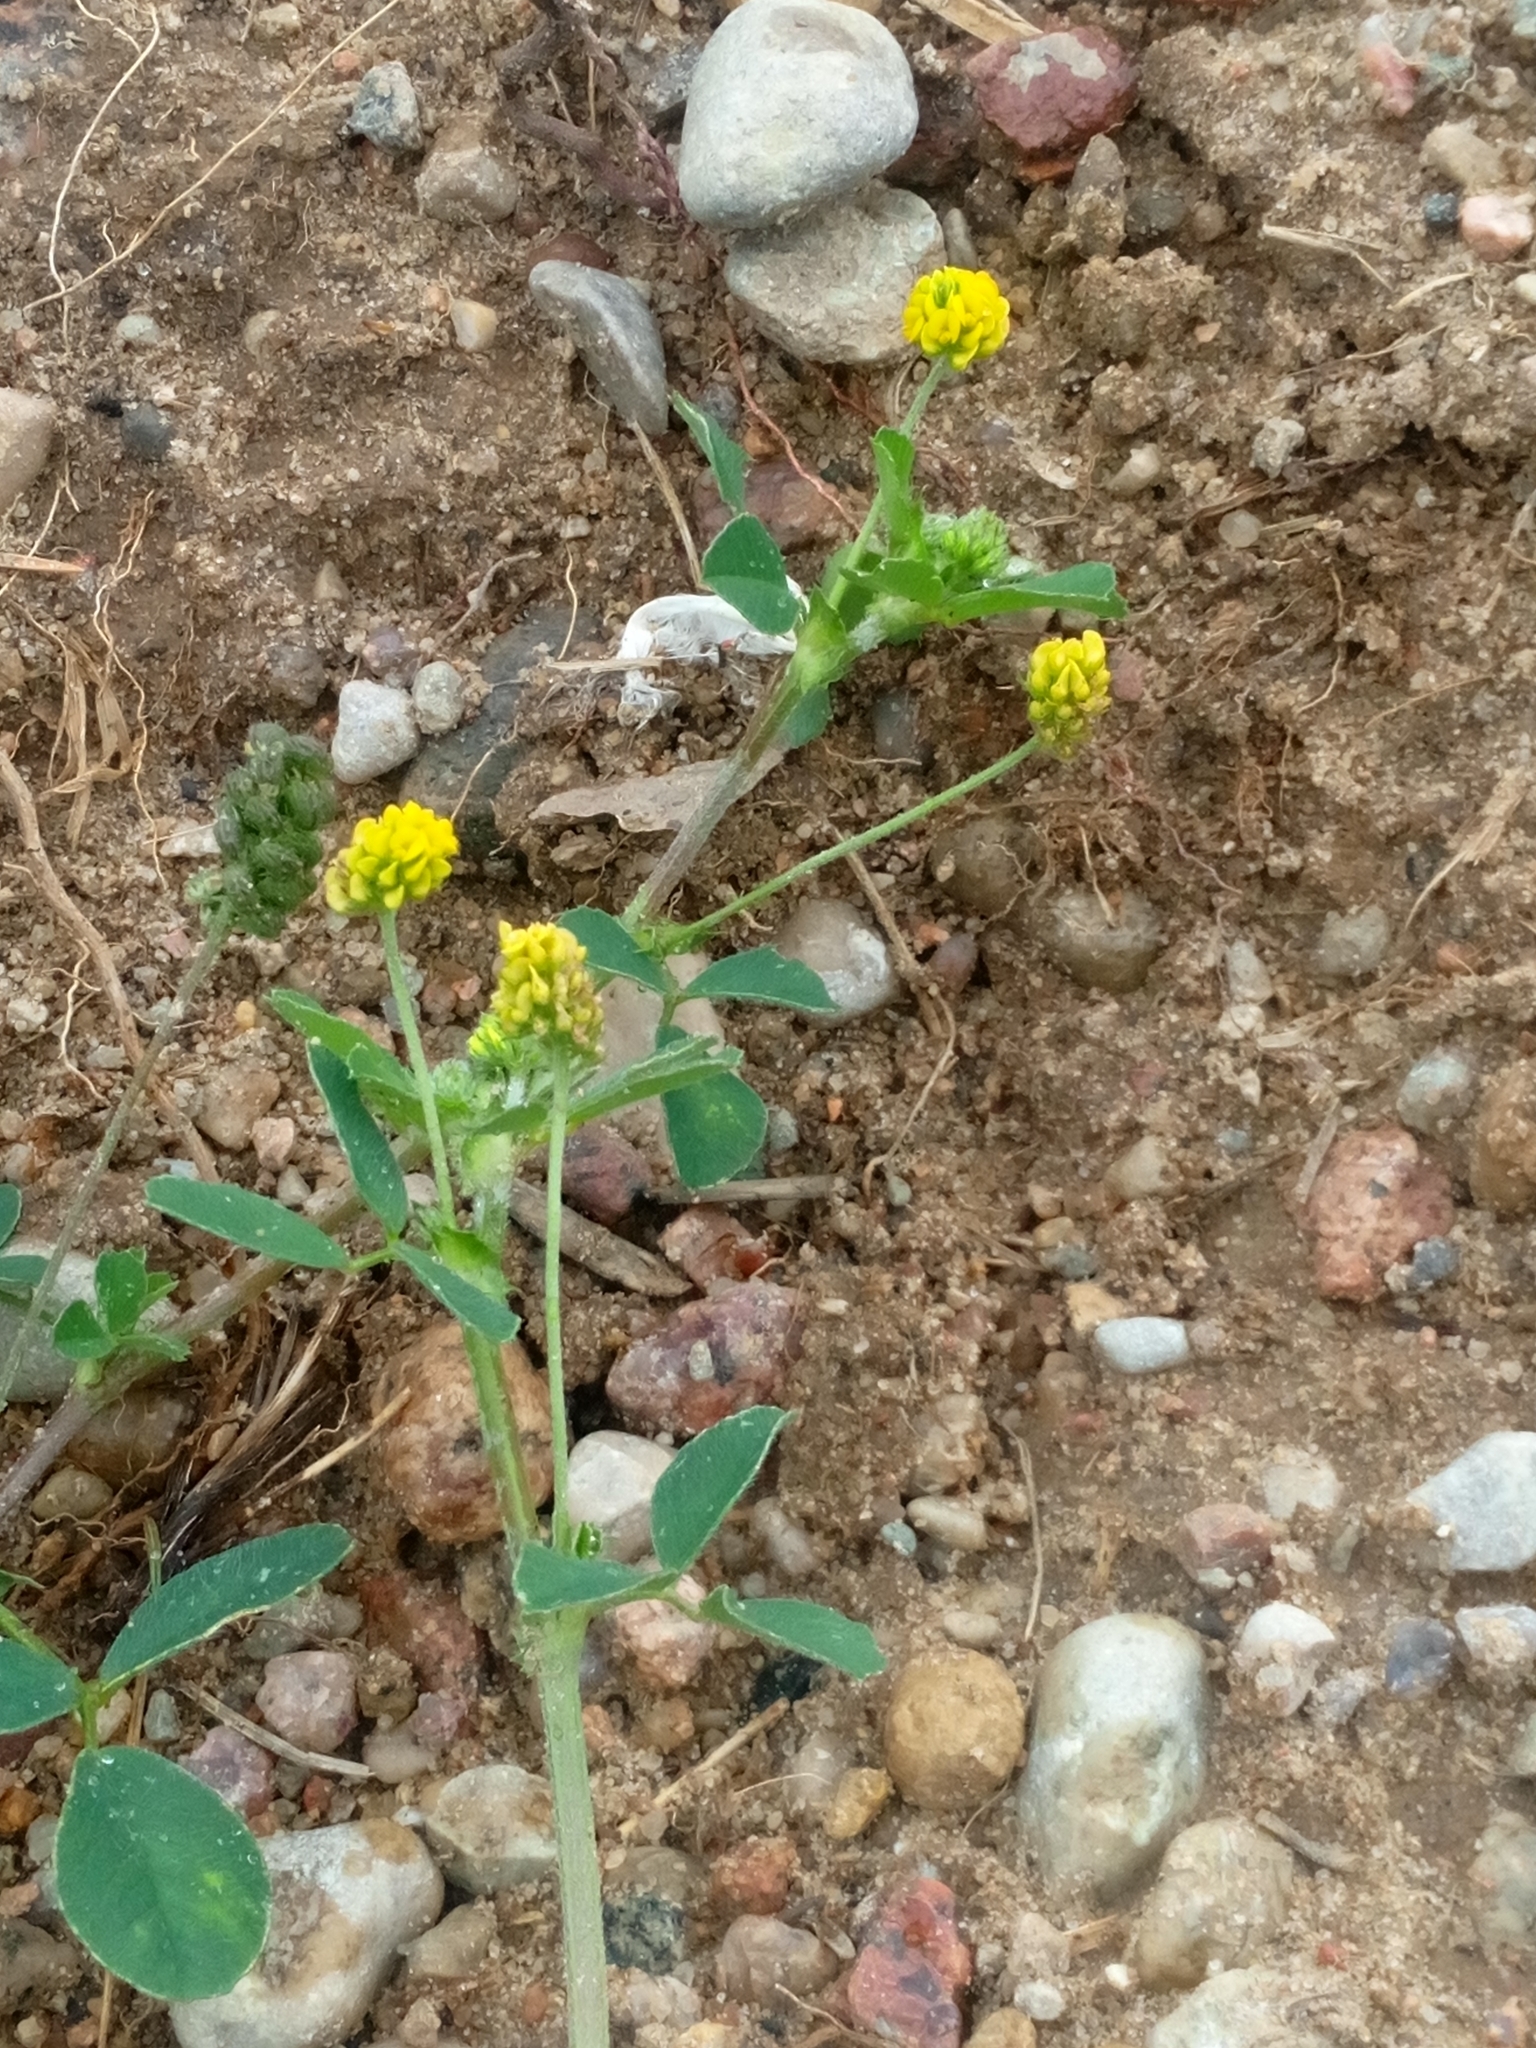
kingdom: Plantae
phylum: Tracheophyta
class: Magnoliopsida
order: Fabales
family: Fabaceae
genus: Medicago
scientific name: Medicago lupulina
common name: Black medick
